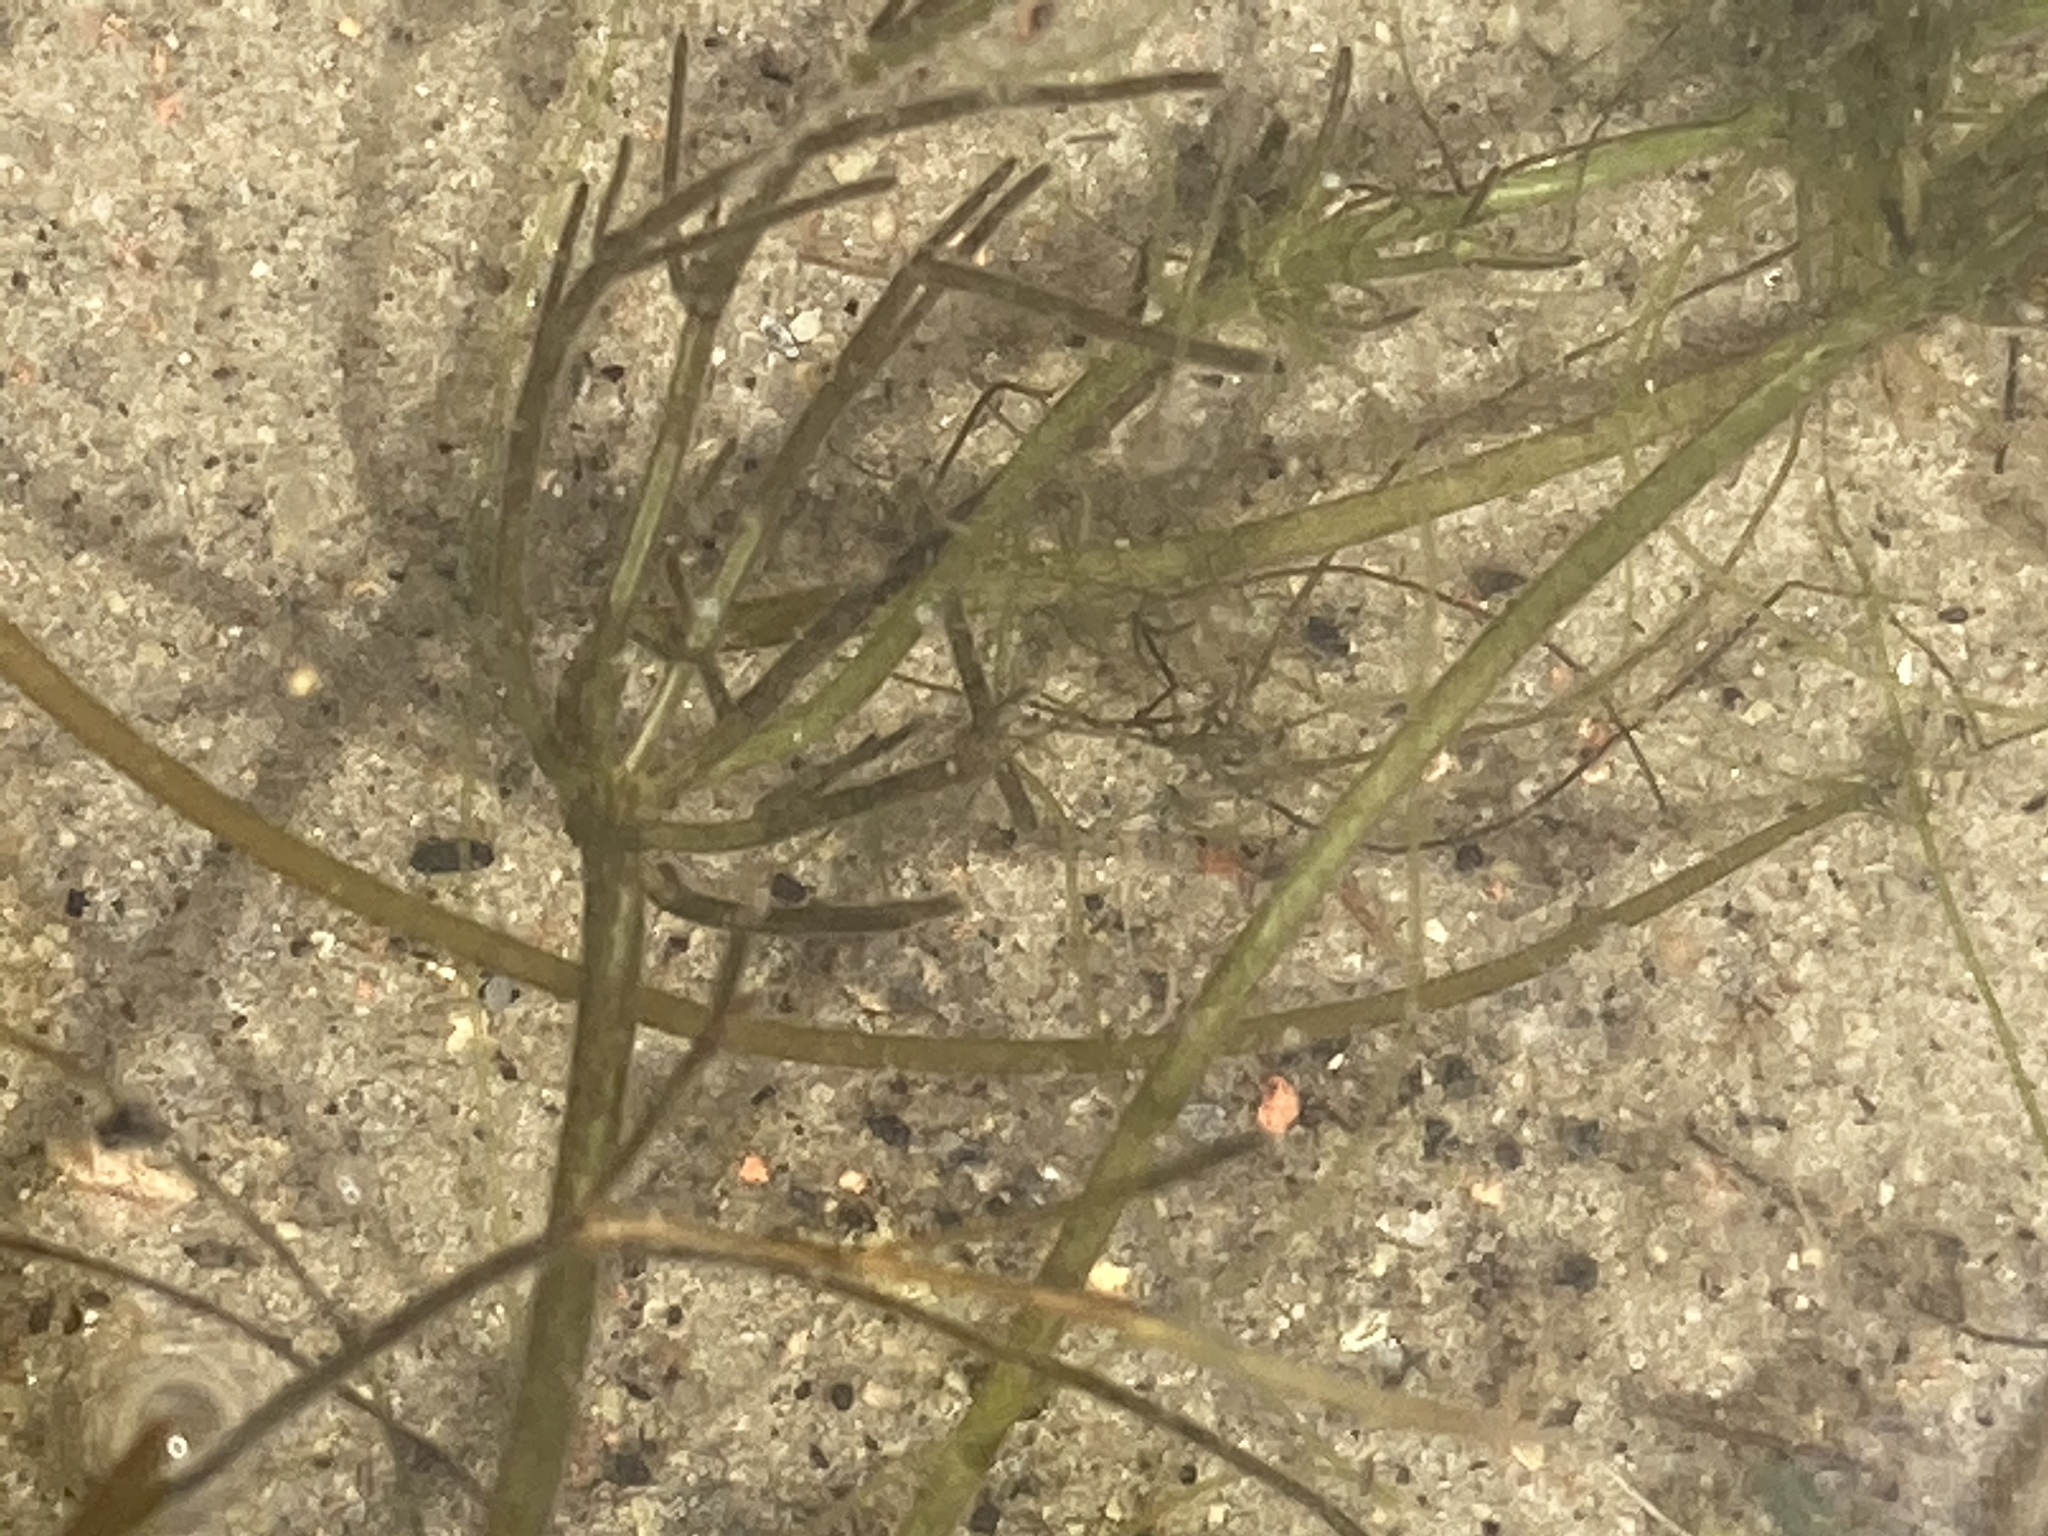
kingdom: Plantae
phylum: Charophyta
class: Charophyceae
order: Charales
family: Characeae
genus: Chara
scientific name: Chara vulgaris
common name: Common stonewort
